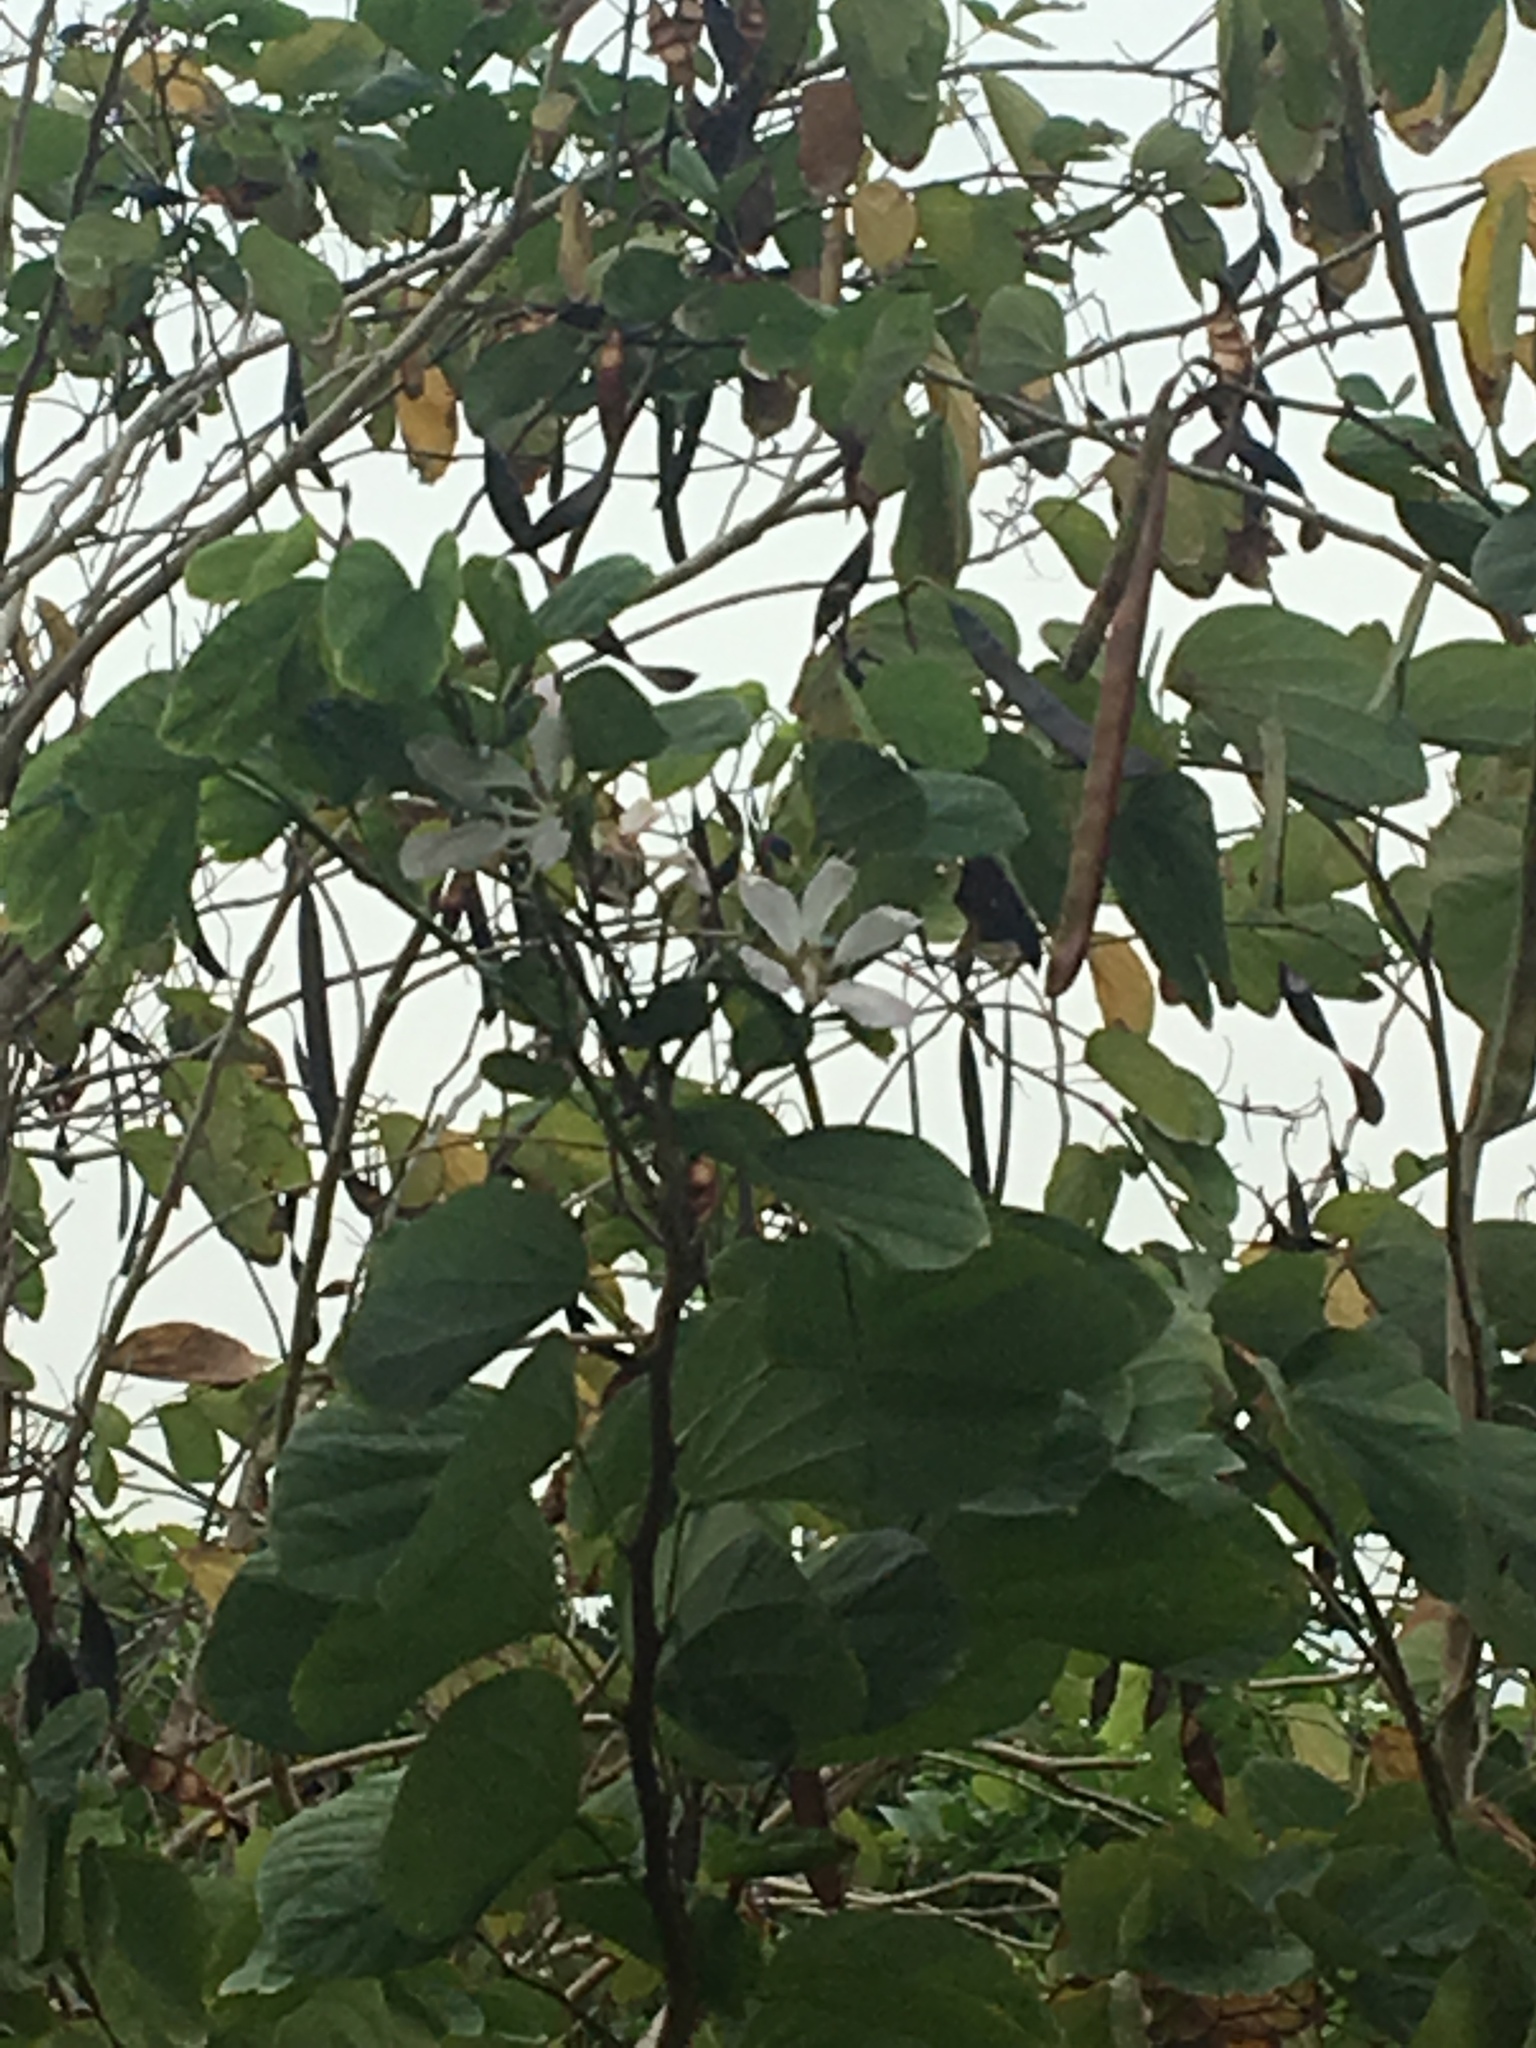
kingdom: Plantae
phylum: Tracheophyta
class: Magnoliopsida
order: Fabales
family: Fabaceae
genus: Bauhinia
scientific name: Bauhinia variegata
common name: Mountain ebony
